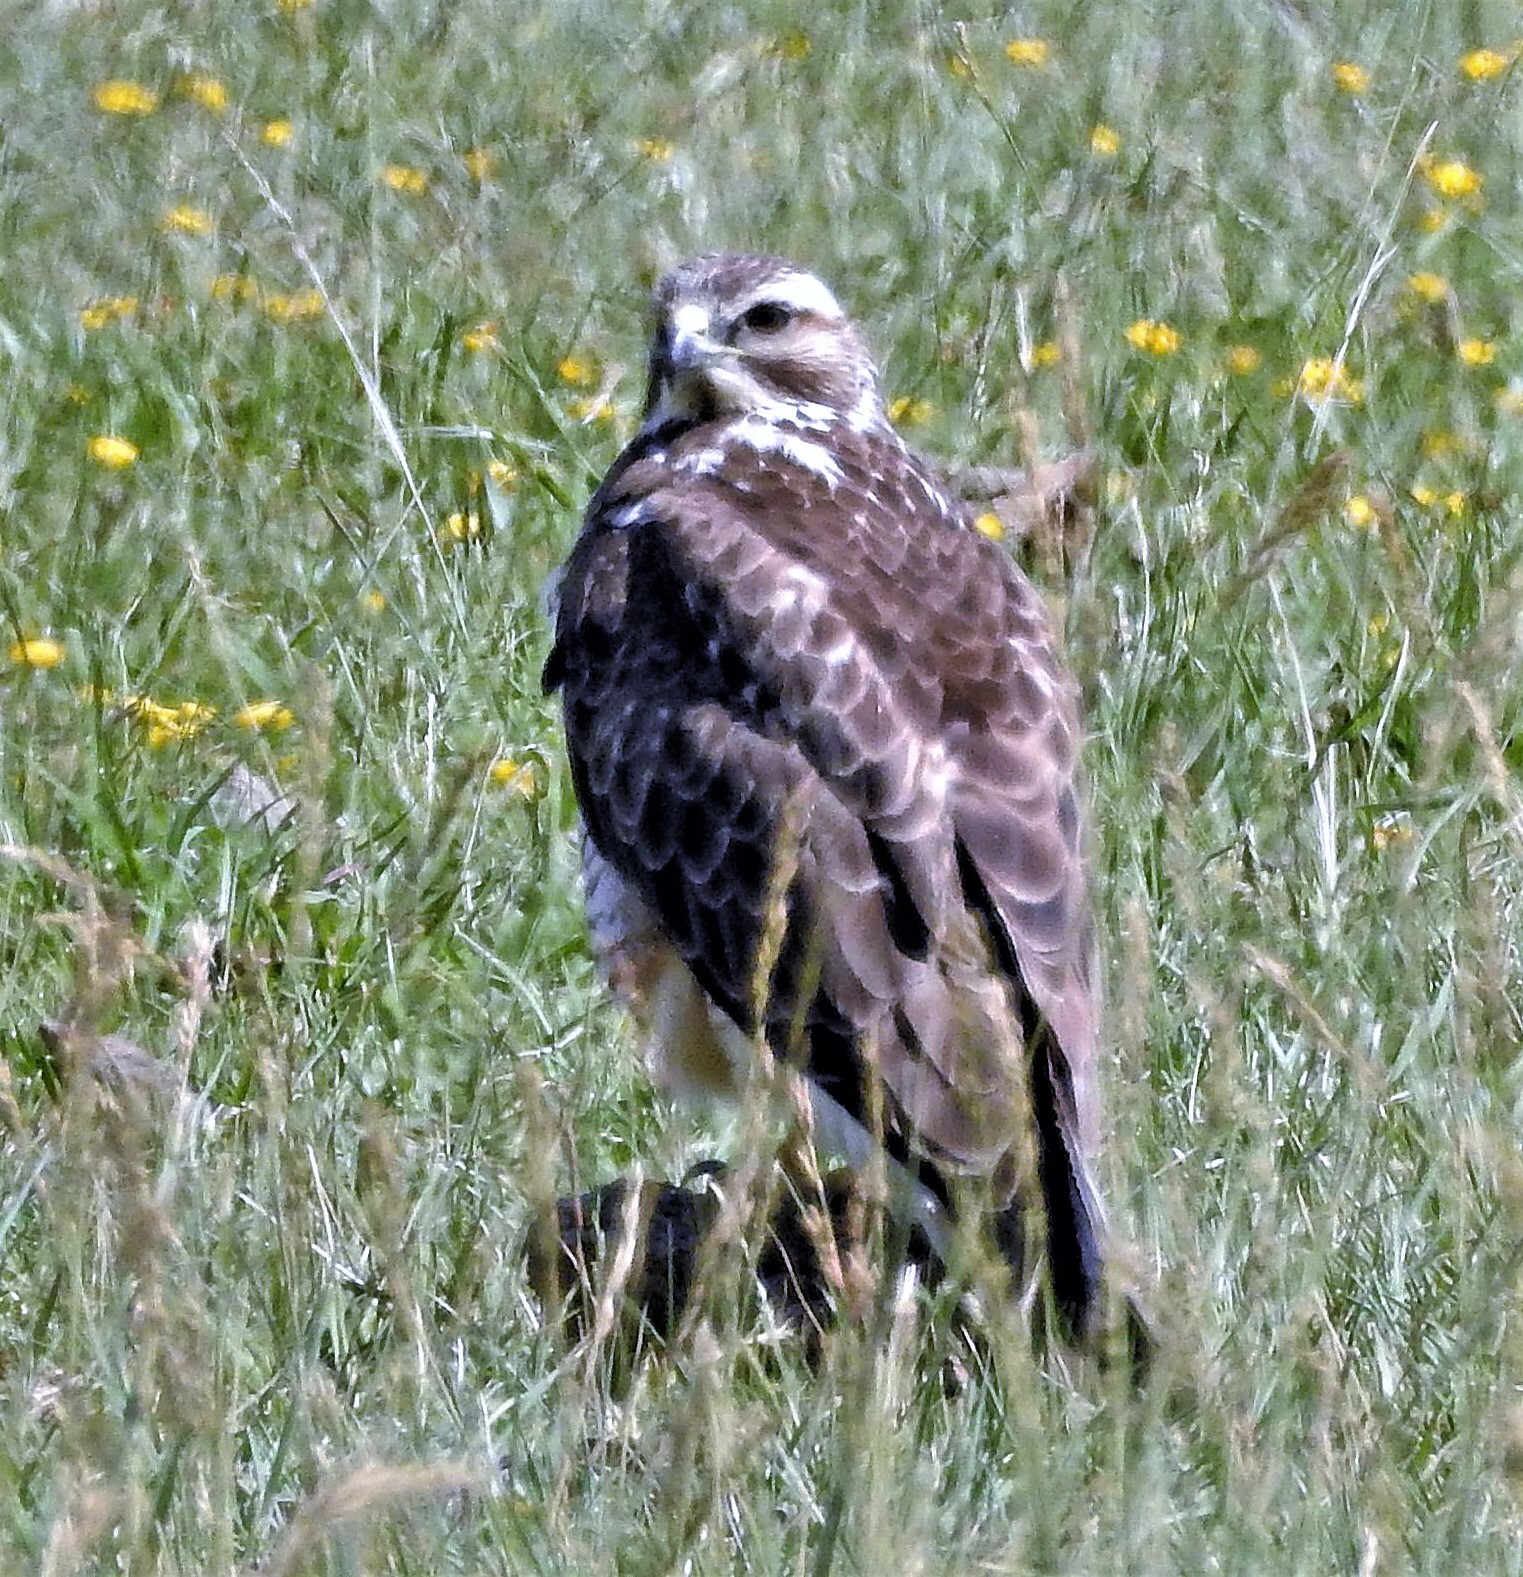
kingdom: Animalia
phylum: Chordata
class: Aves
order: Accipitriformes
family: Accipitridae
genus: Buteo
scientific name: Buteo swainsoni
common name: Swainson's hawk
